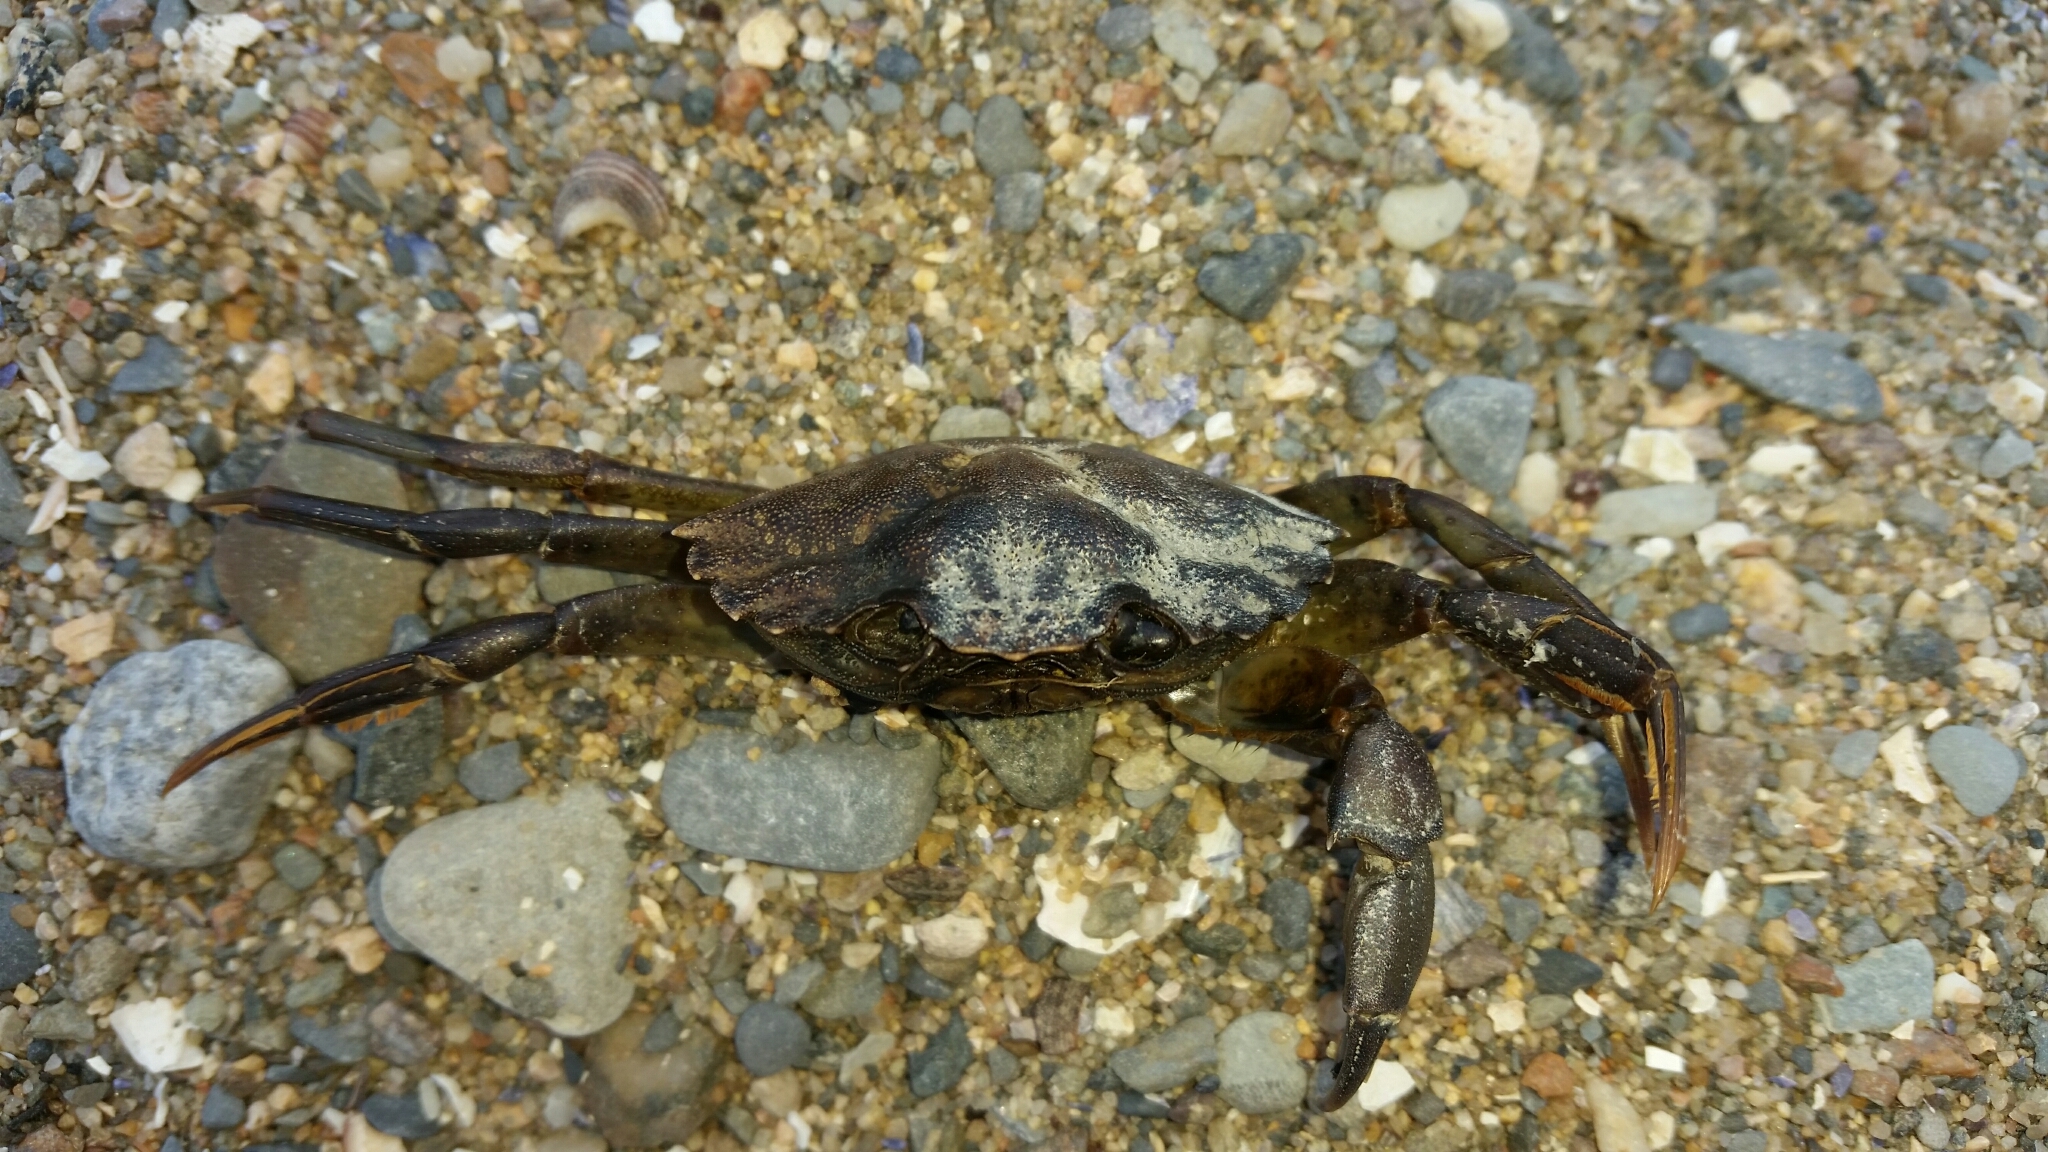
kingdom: Animalia
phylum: Arthropoda
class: Malacostraca
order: Decapoda
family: Carcinidae
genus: Carcinus
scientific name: Carcinus maenas
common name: European green crab
